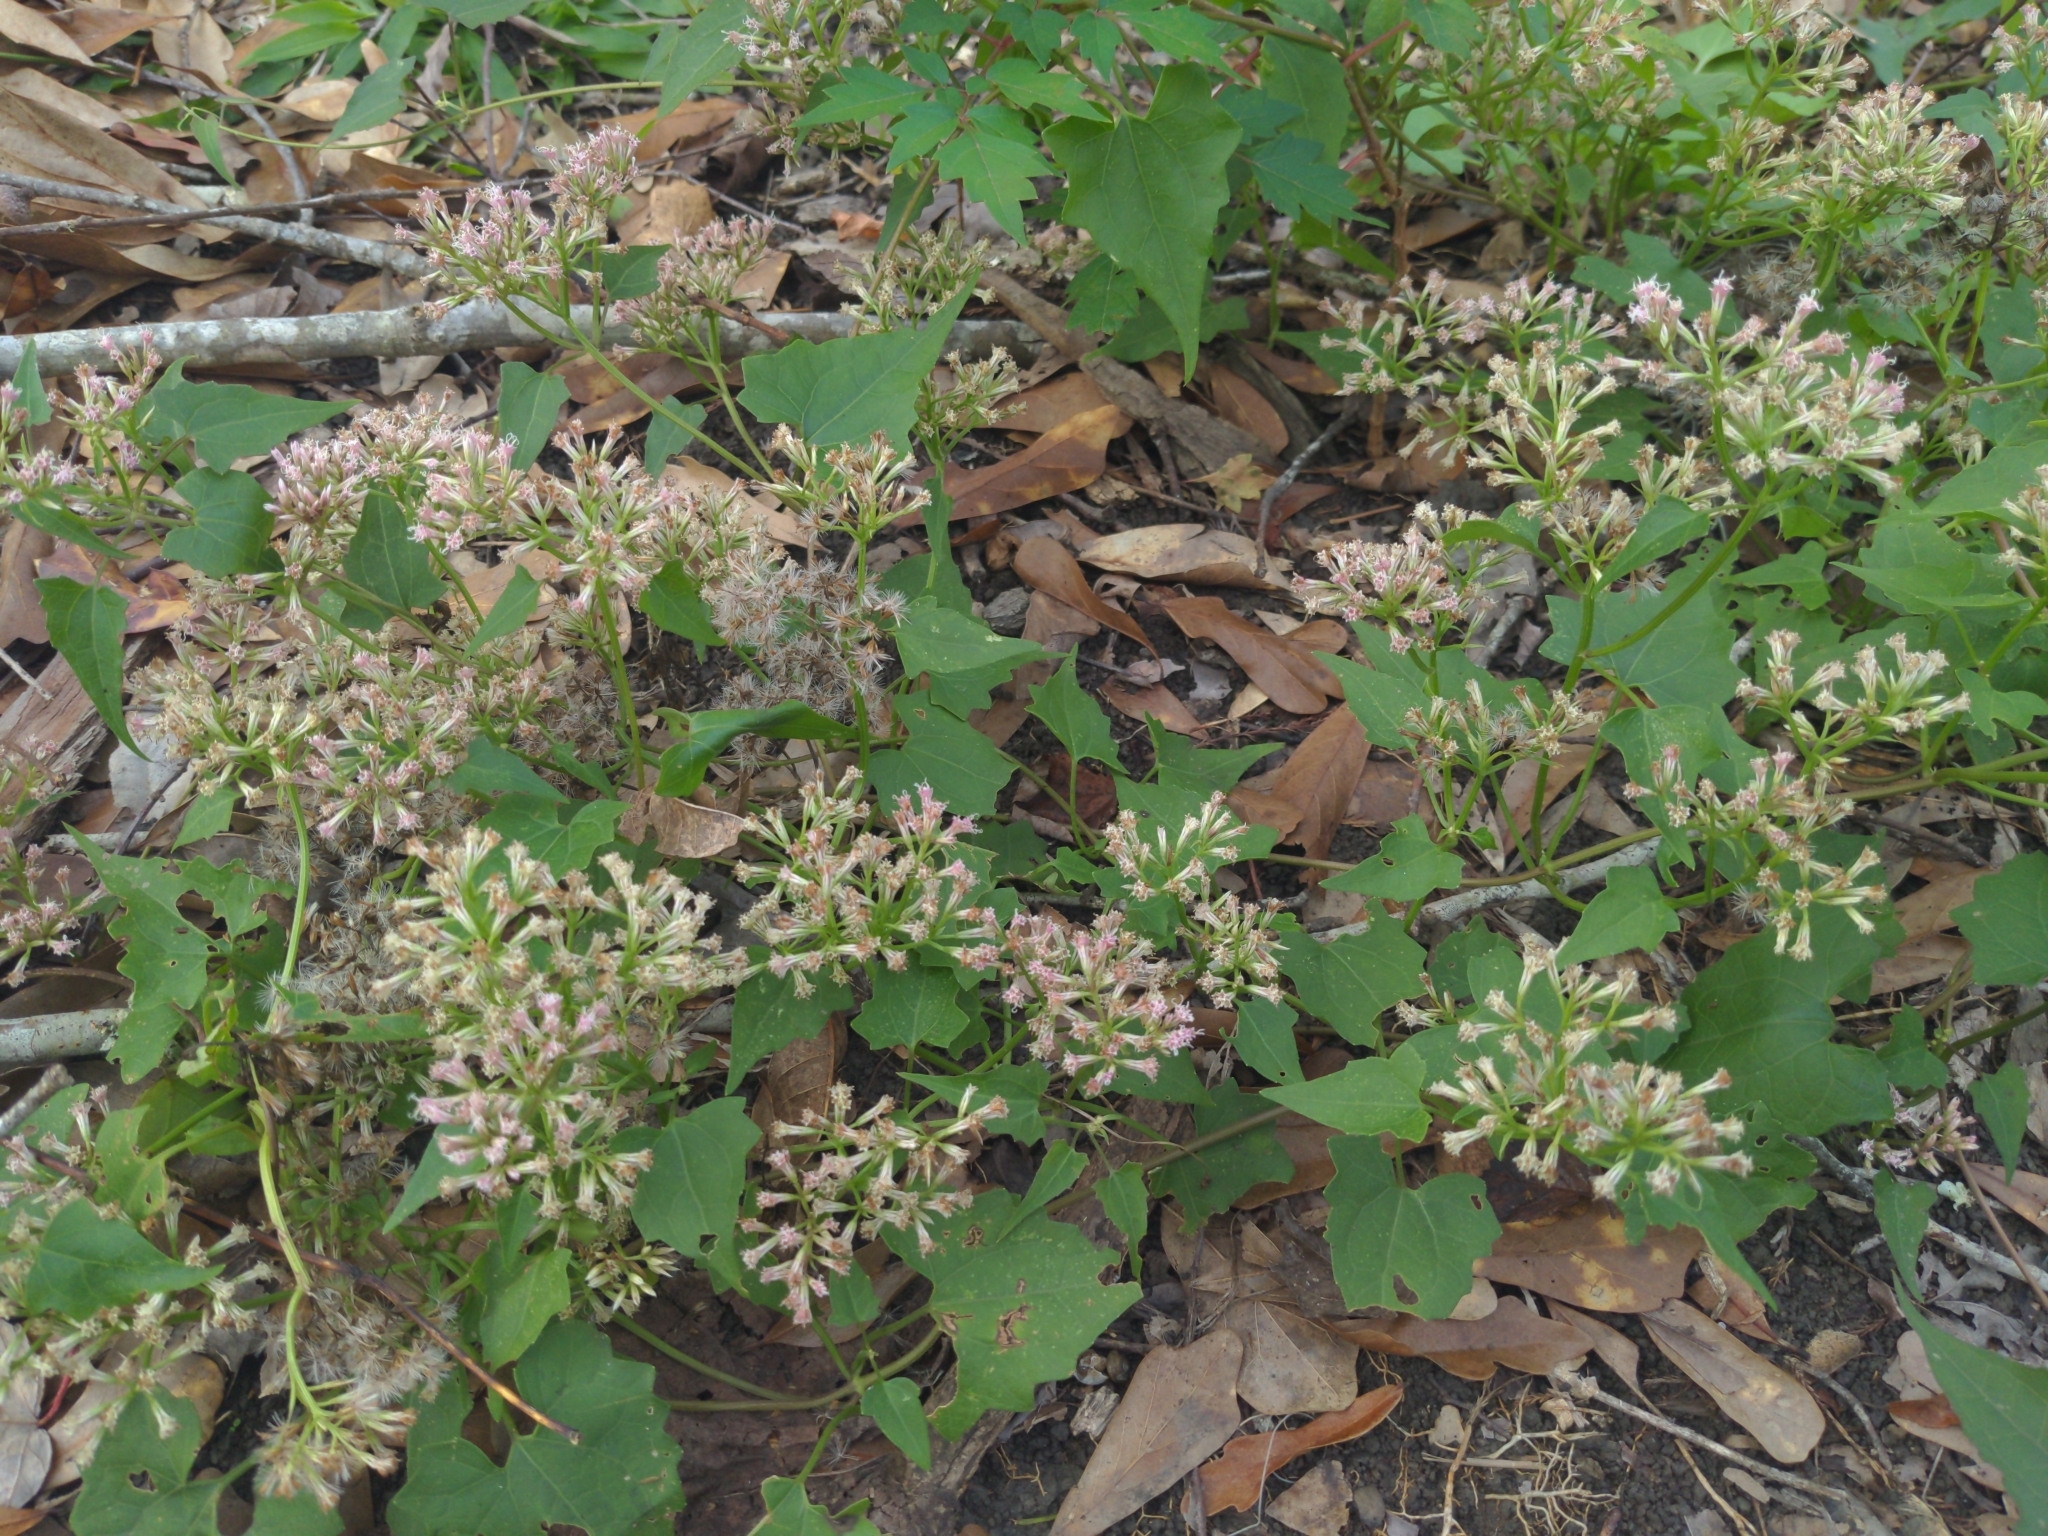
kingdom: Plantae
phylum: Tracheophyta
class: Magnoliopsida
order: Asterales
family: Asteraceae
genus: Mikania
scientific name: Mikania scandens
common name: Climbing hempvine
